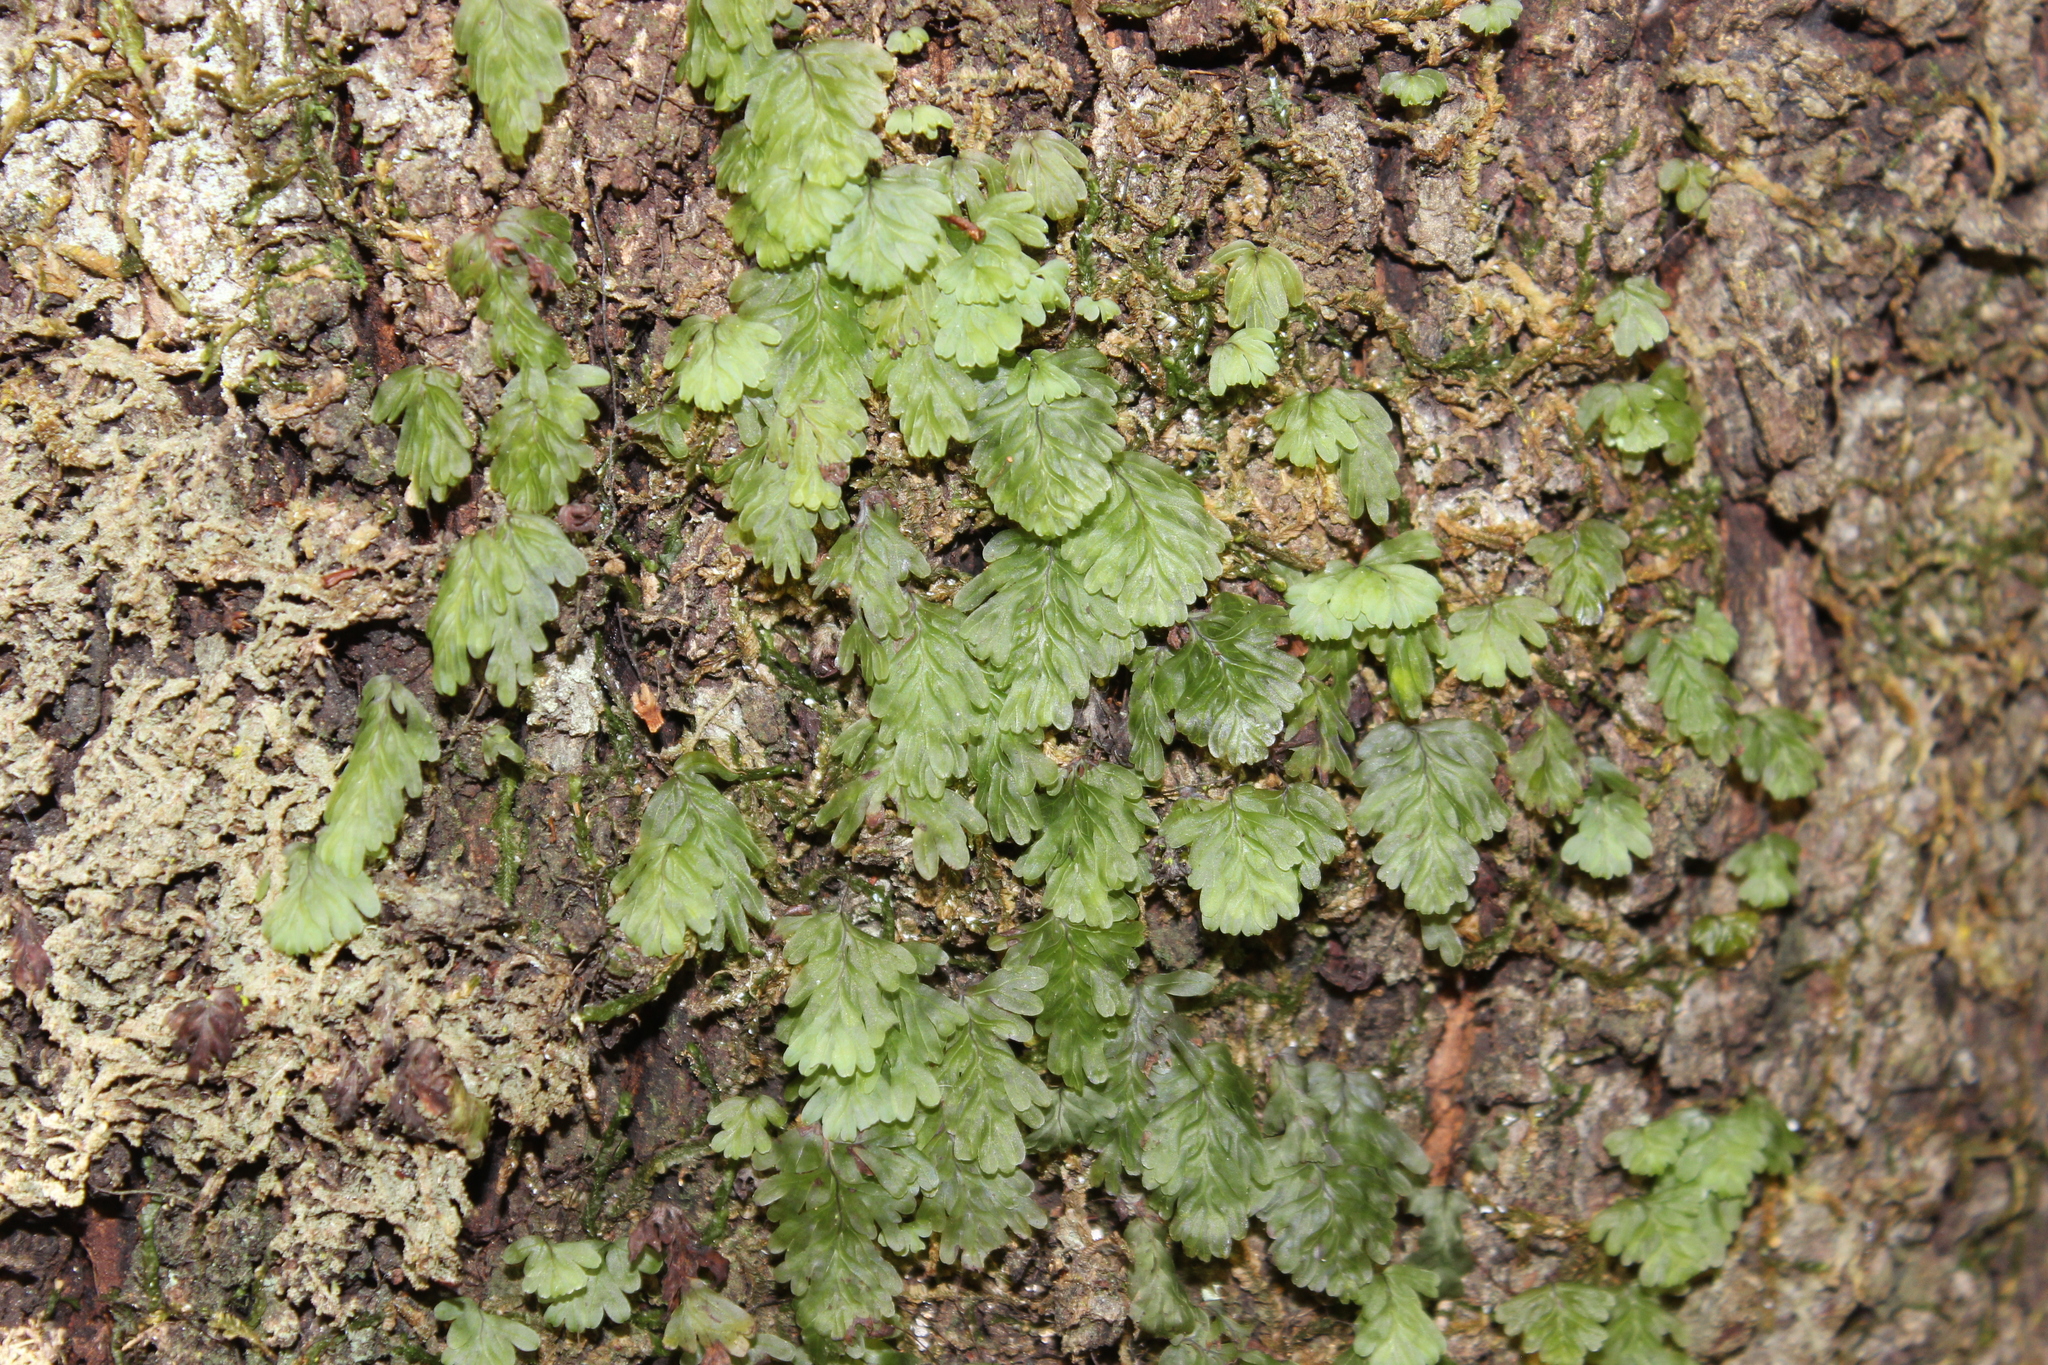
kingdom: Plantae
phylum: Tracheophyta
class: Polypodiopsida
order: Hymenophyllales
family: Hymenophyllaceae
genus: Hymenophyllum
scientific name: Hymenophyllum rarum
